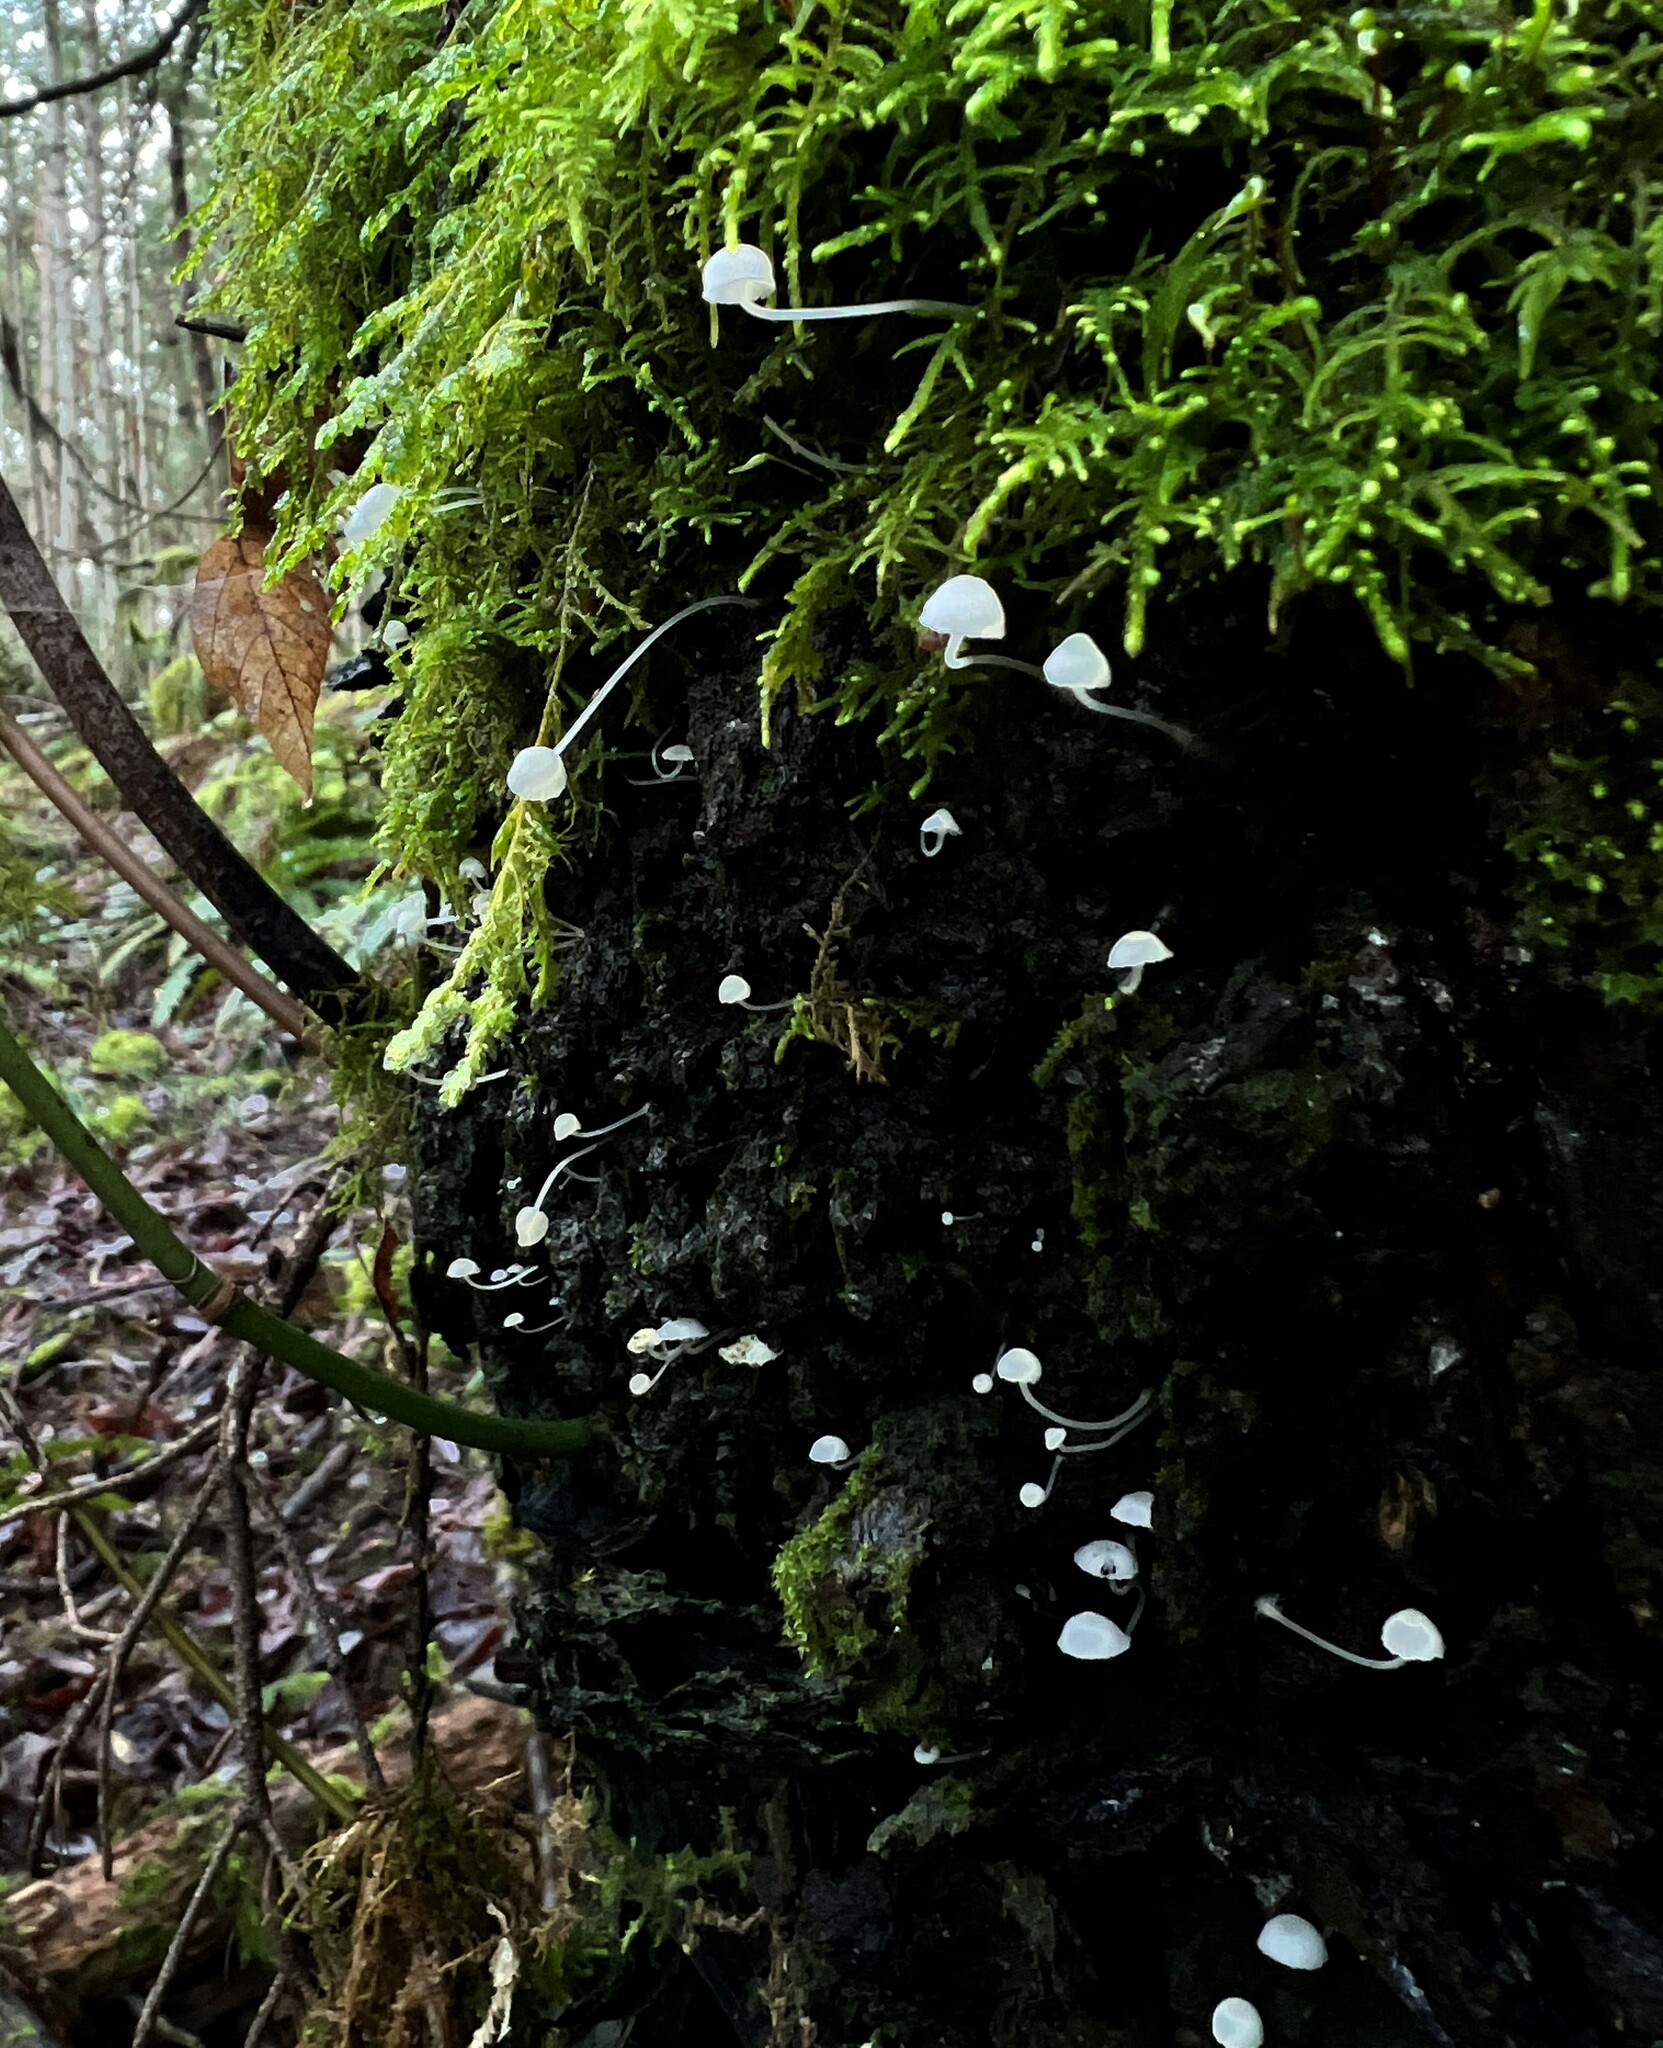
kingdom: Fungi
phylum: Basidiomycota
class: Agaricomycetes
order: Agaricales
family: Omphalotaceae
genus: Marasmiellus
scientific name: Marasmiellus candidus
